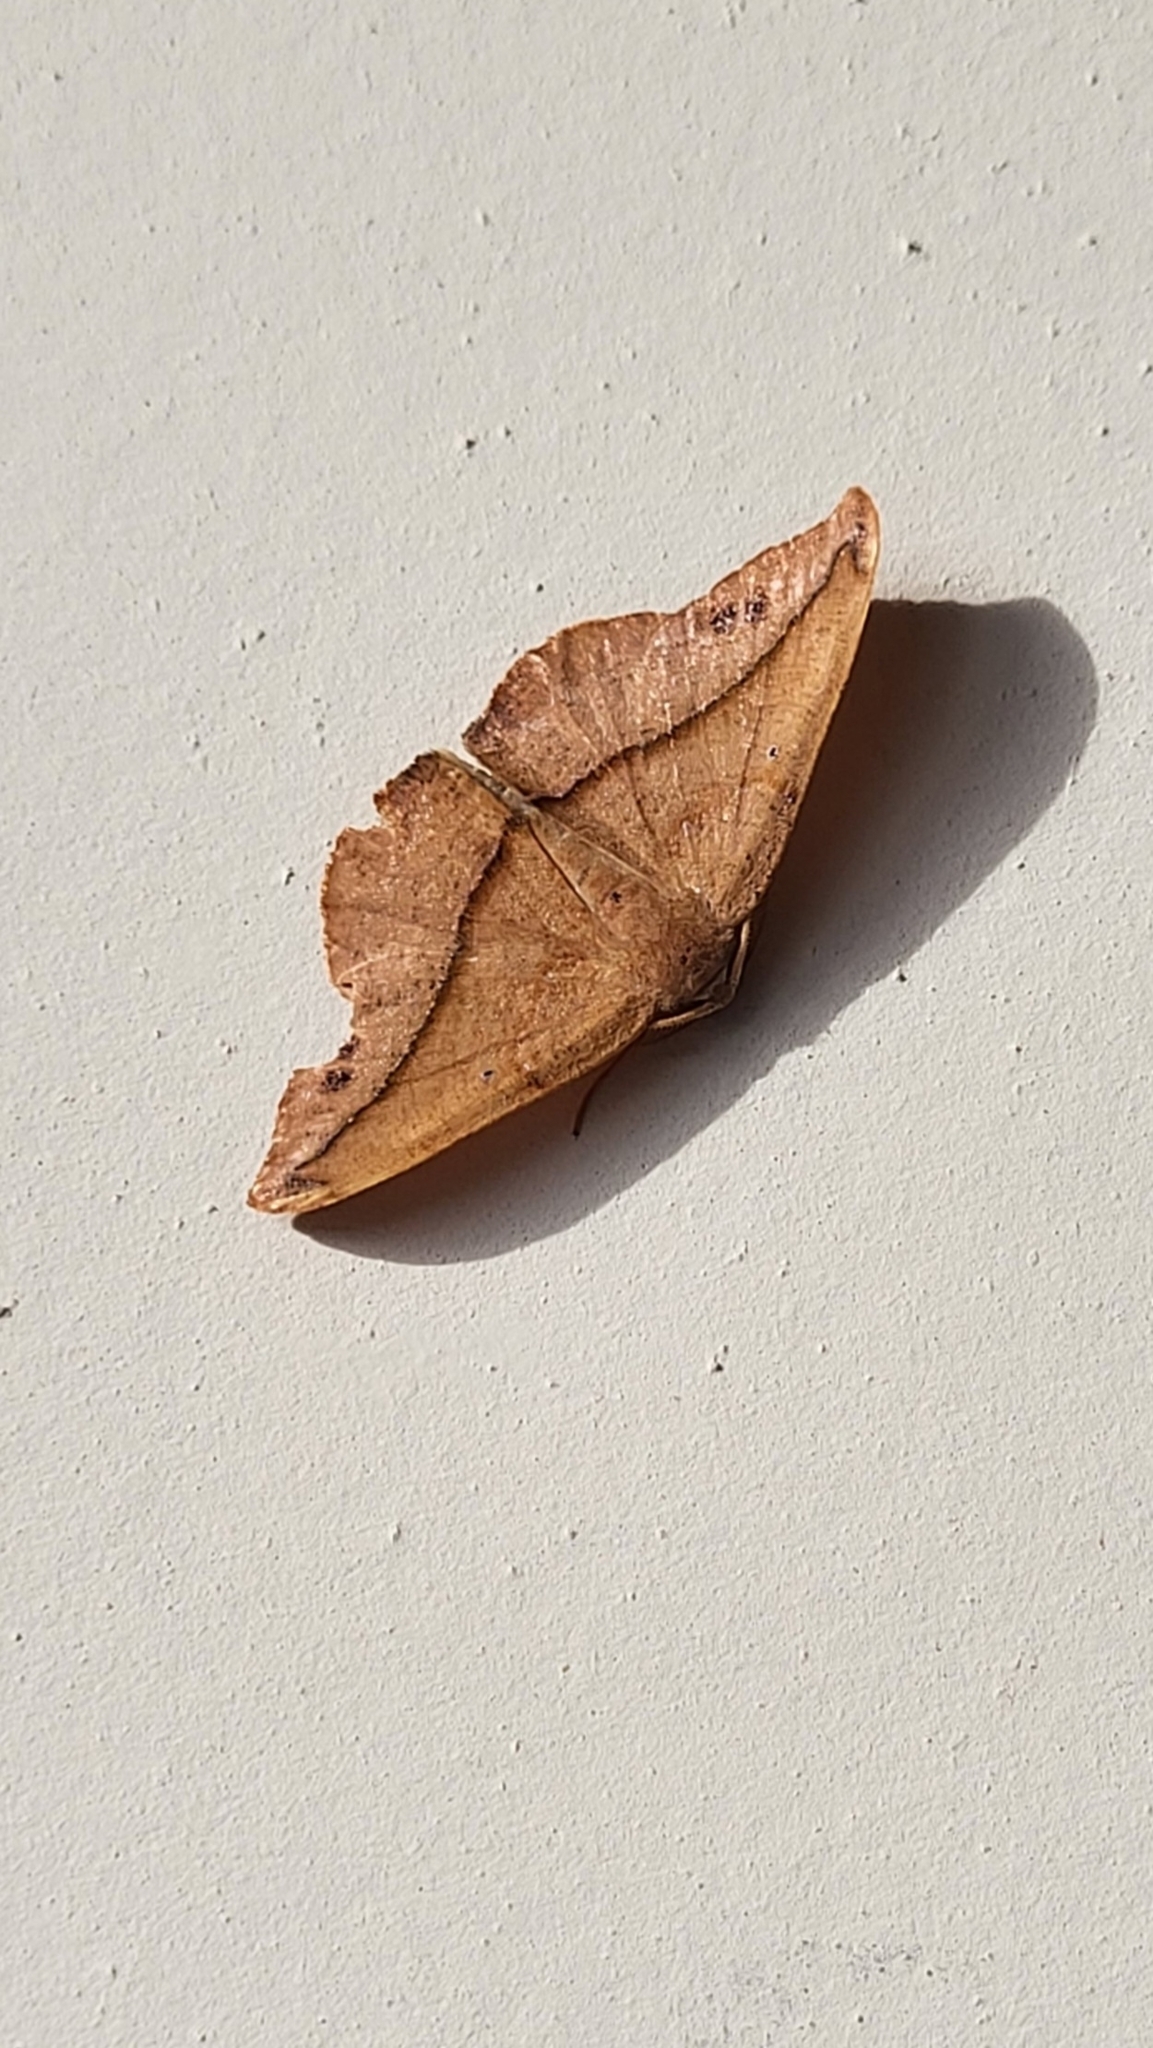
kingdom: Animalia
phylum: Arthropoda
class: Insecta
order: Lepidoptera
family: Geometridae
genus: Patalene
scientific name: Patalene olyzonaria
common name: Juniper geometer moth
